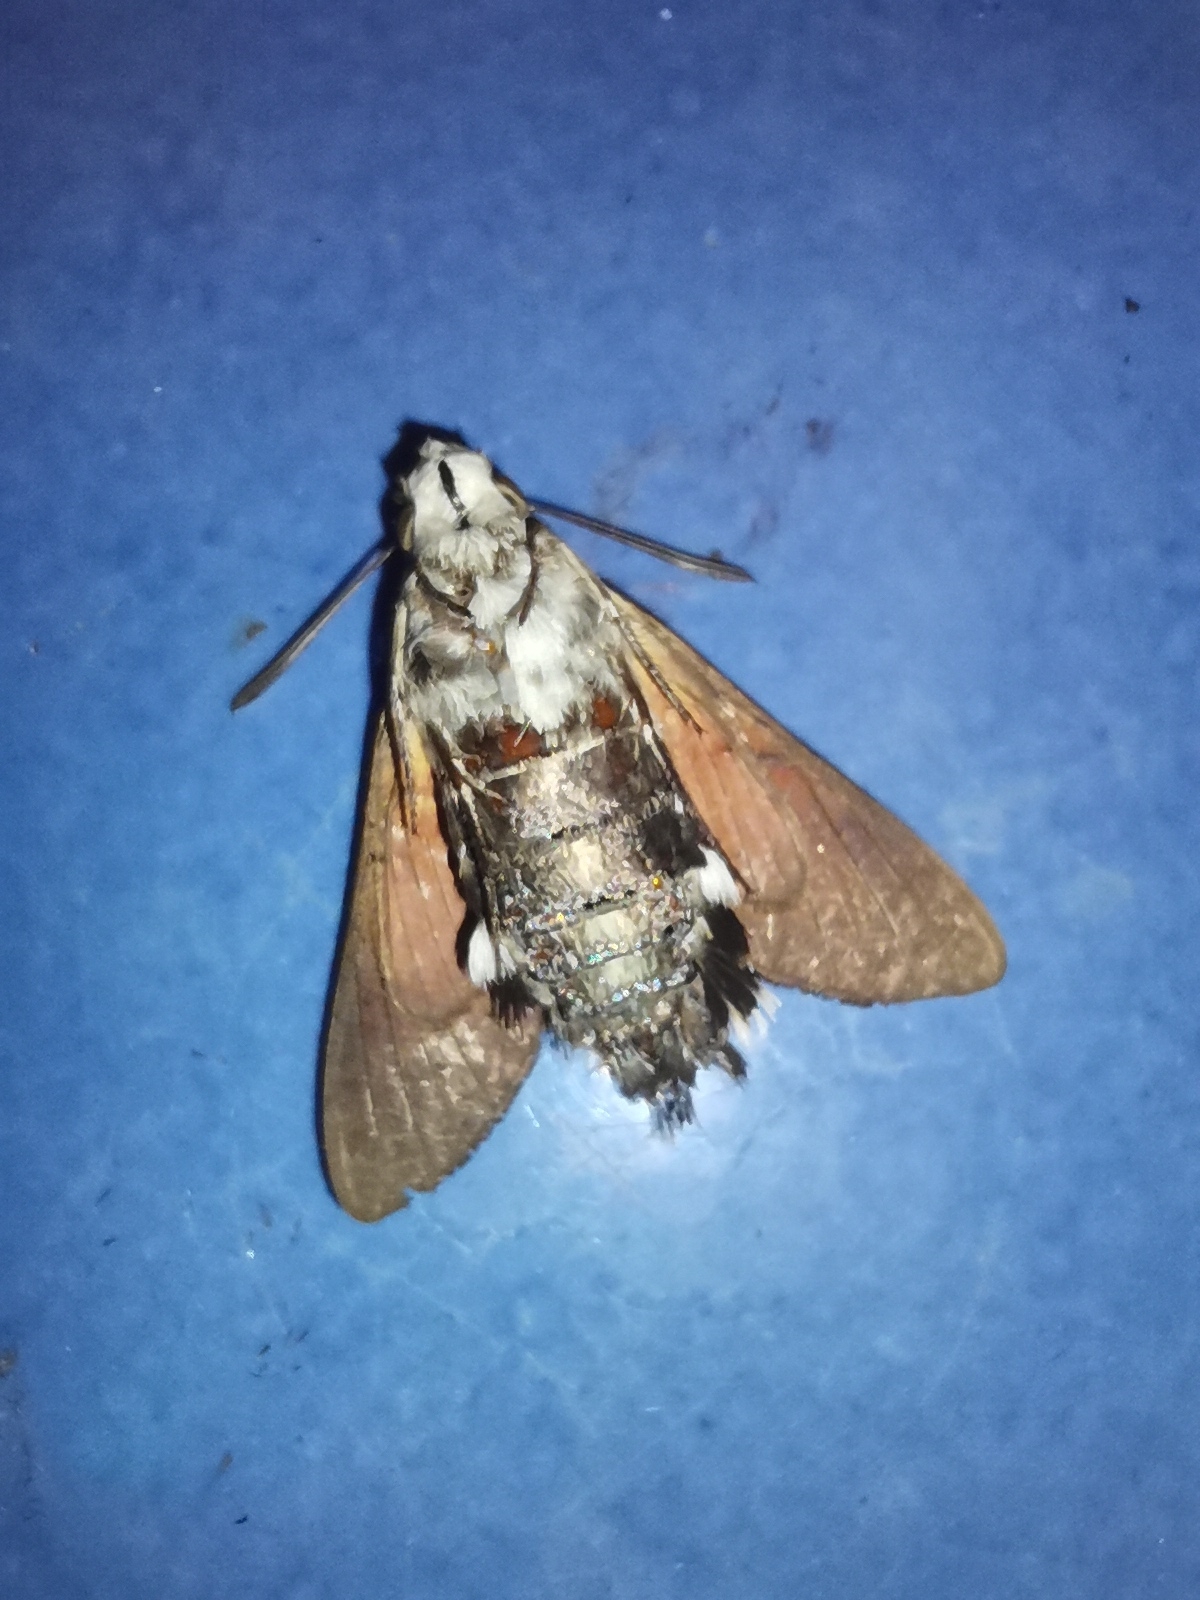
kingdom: Animalia
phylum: Arthropoda
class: Insecta
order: Lepidoptera
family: Sphingidae
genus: Macroglossum
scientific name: Macroglossum stellatarum
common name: Humming-bird hawk-moth
